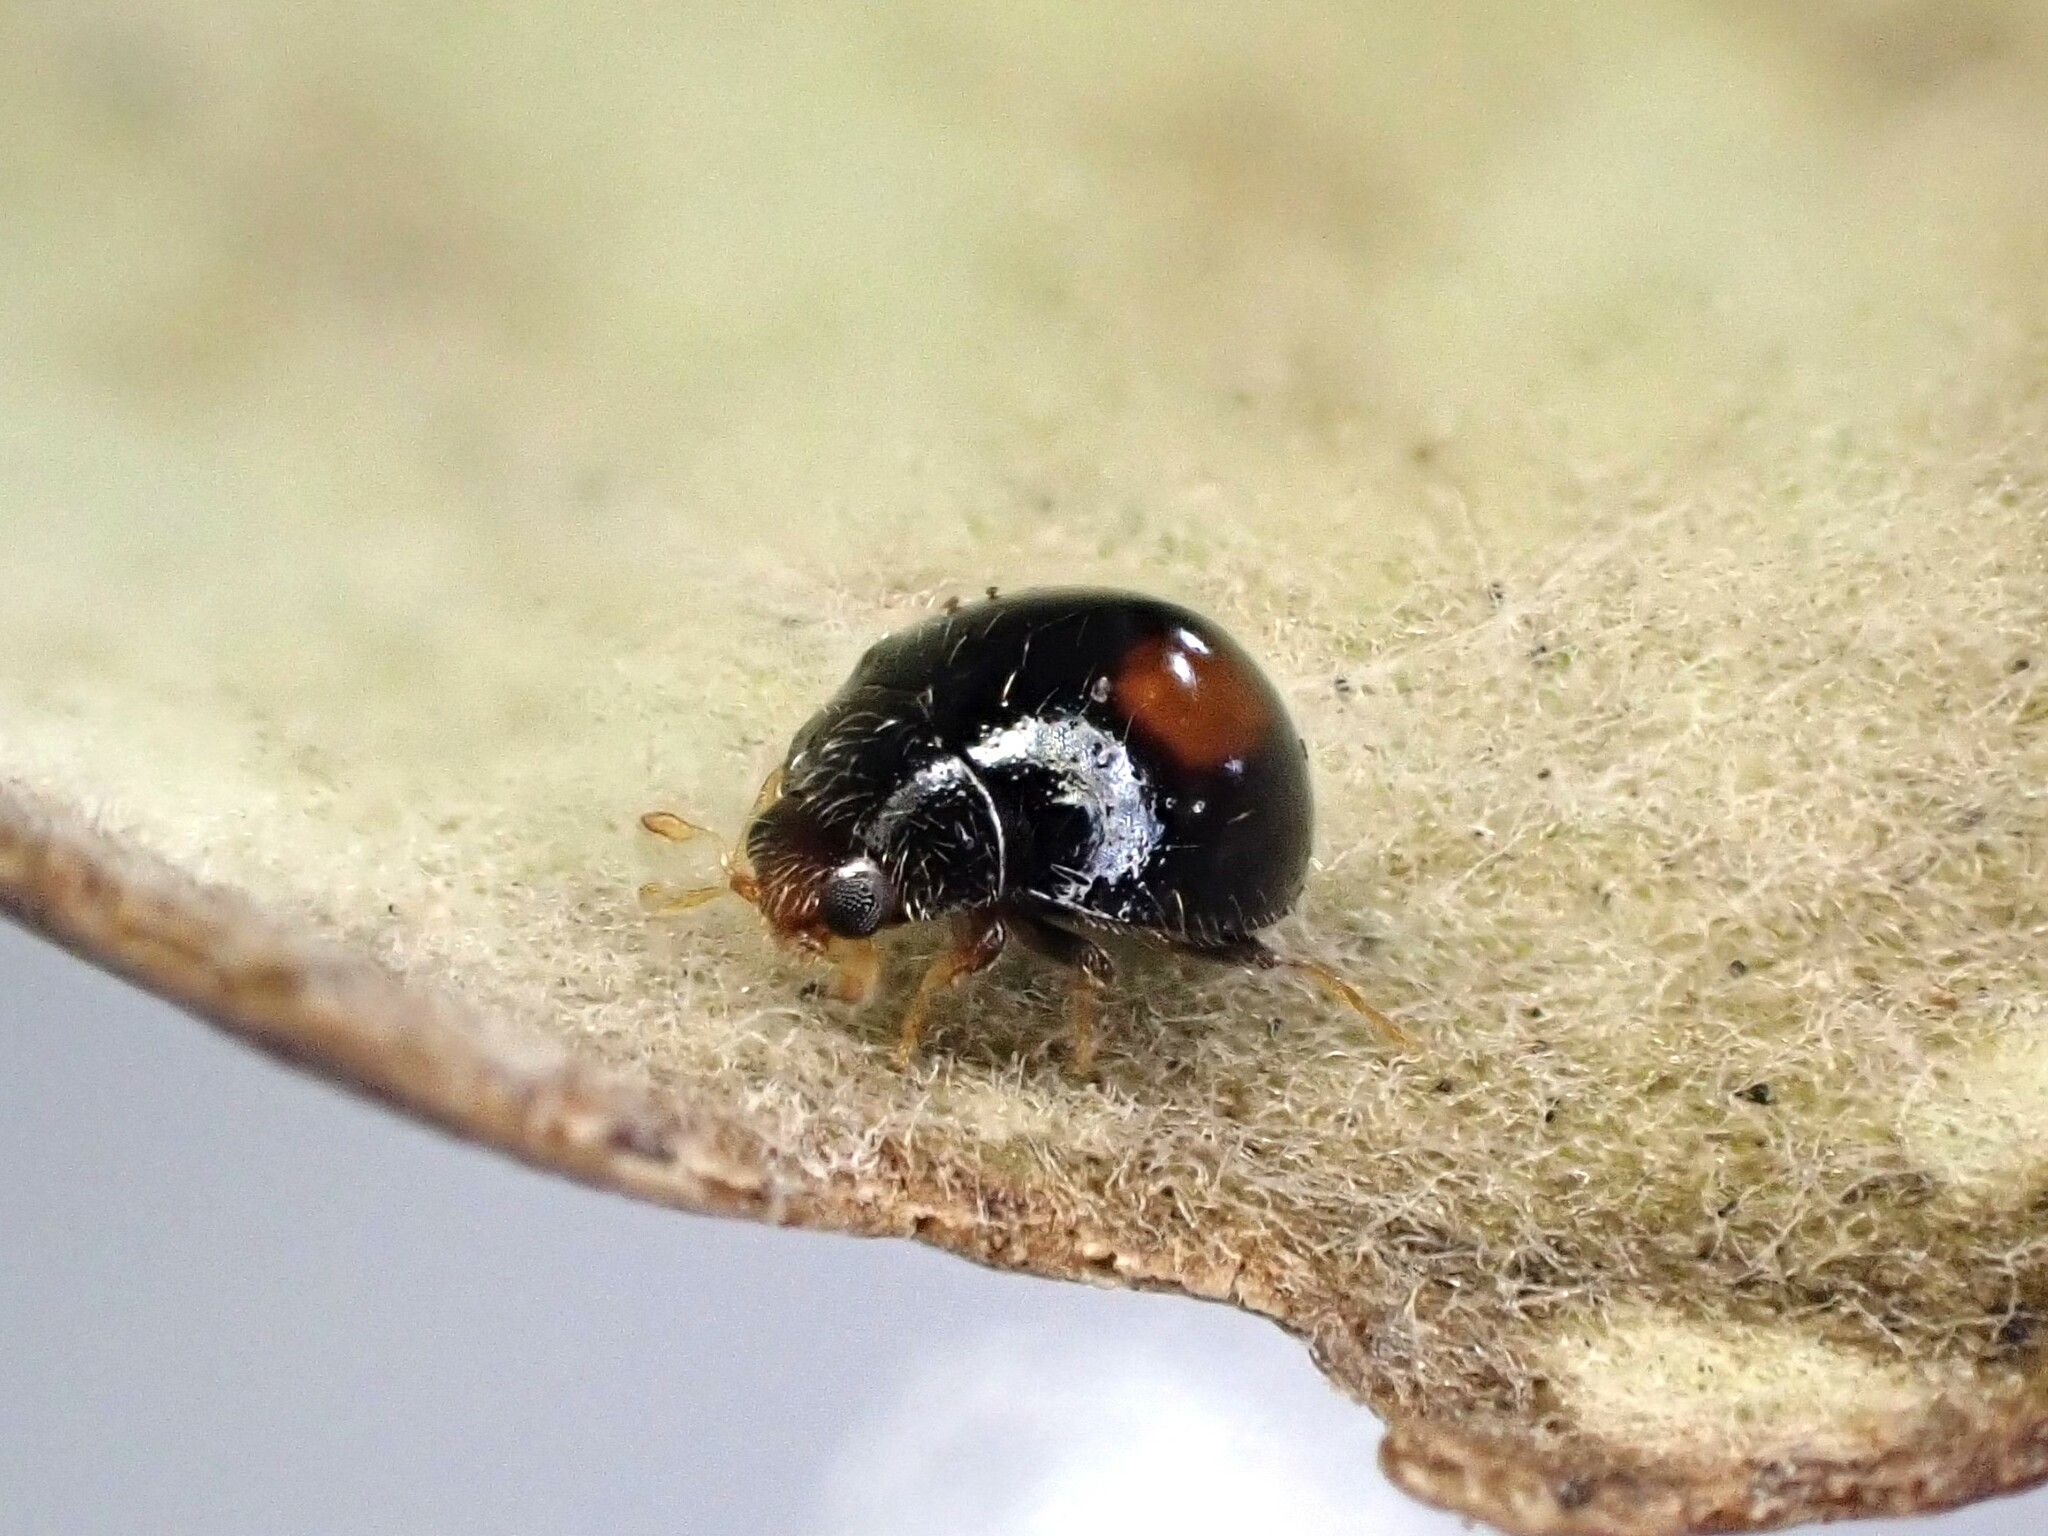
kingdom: Animalia
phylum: Arthropoda
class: Insecta
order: Coleoptera
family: Coccinellidae
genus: Serangium
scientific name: Serangium maculigerum
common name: Lady beetle
